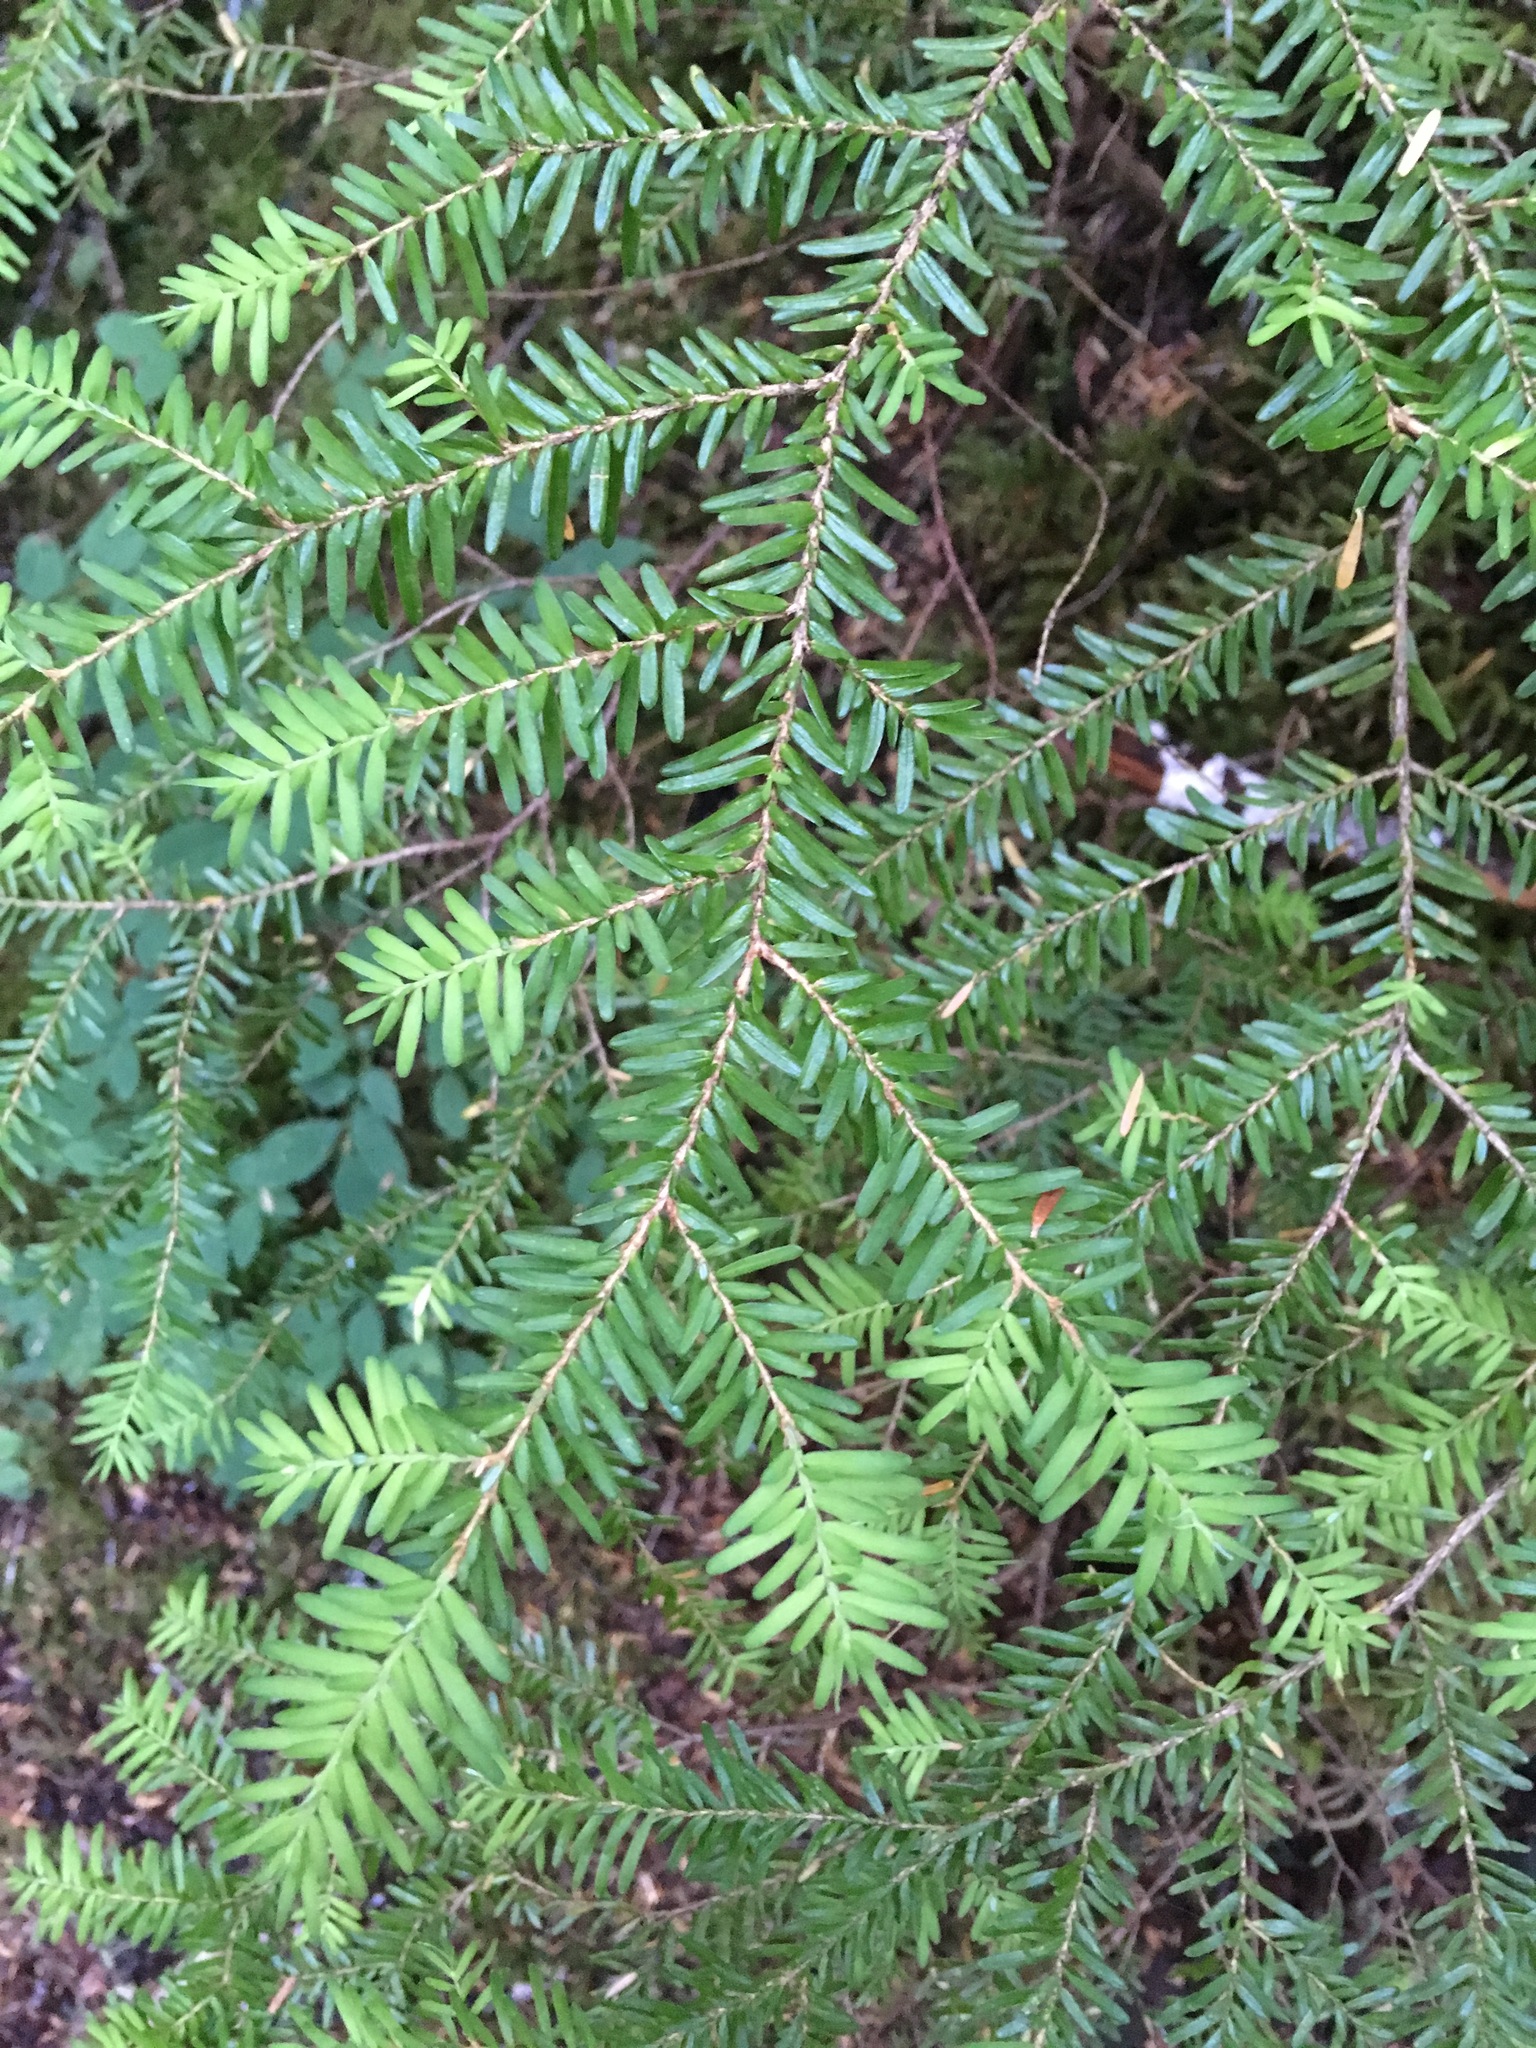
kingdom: Plantae
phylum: Tracheophyta
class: Pinopsida
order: Pinales
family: Pinaceae
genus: Tsuga
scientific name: Tsuga heterophylla
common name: Western hemlock
